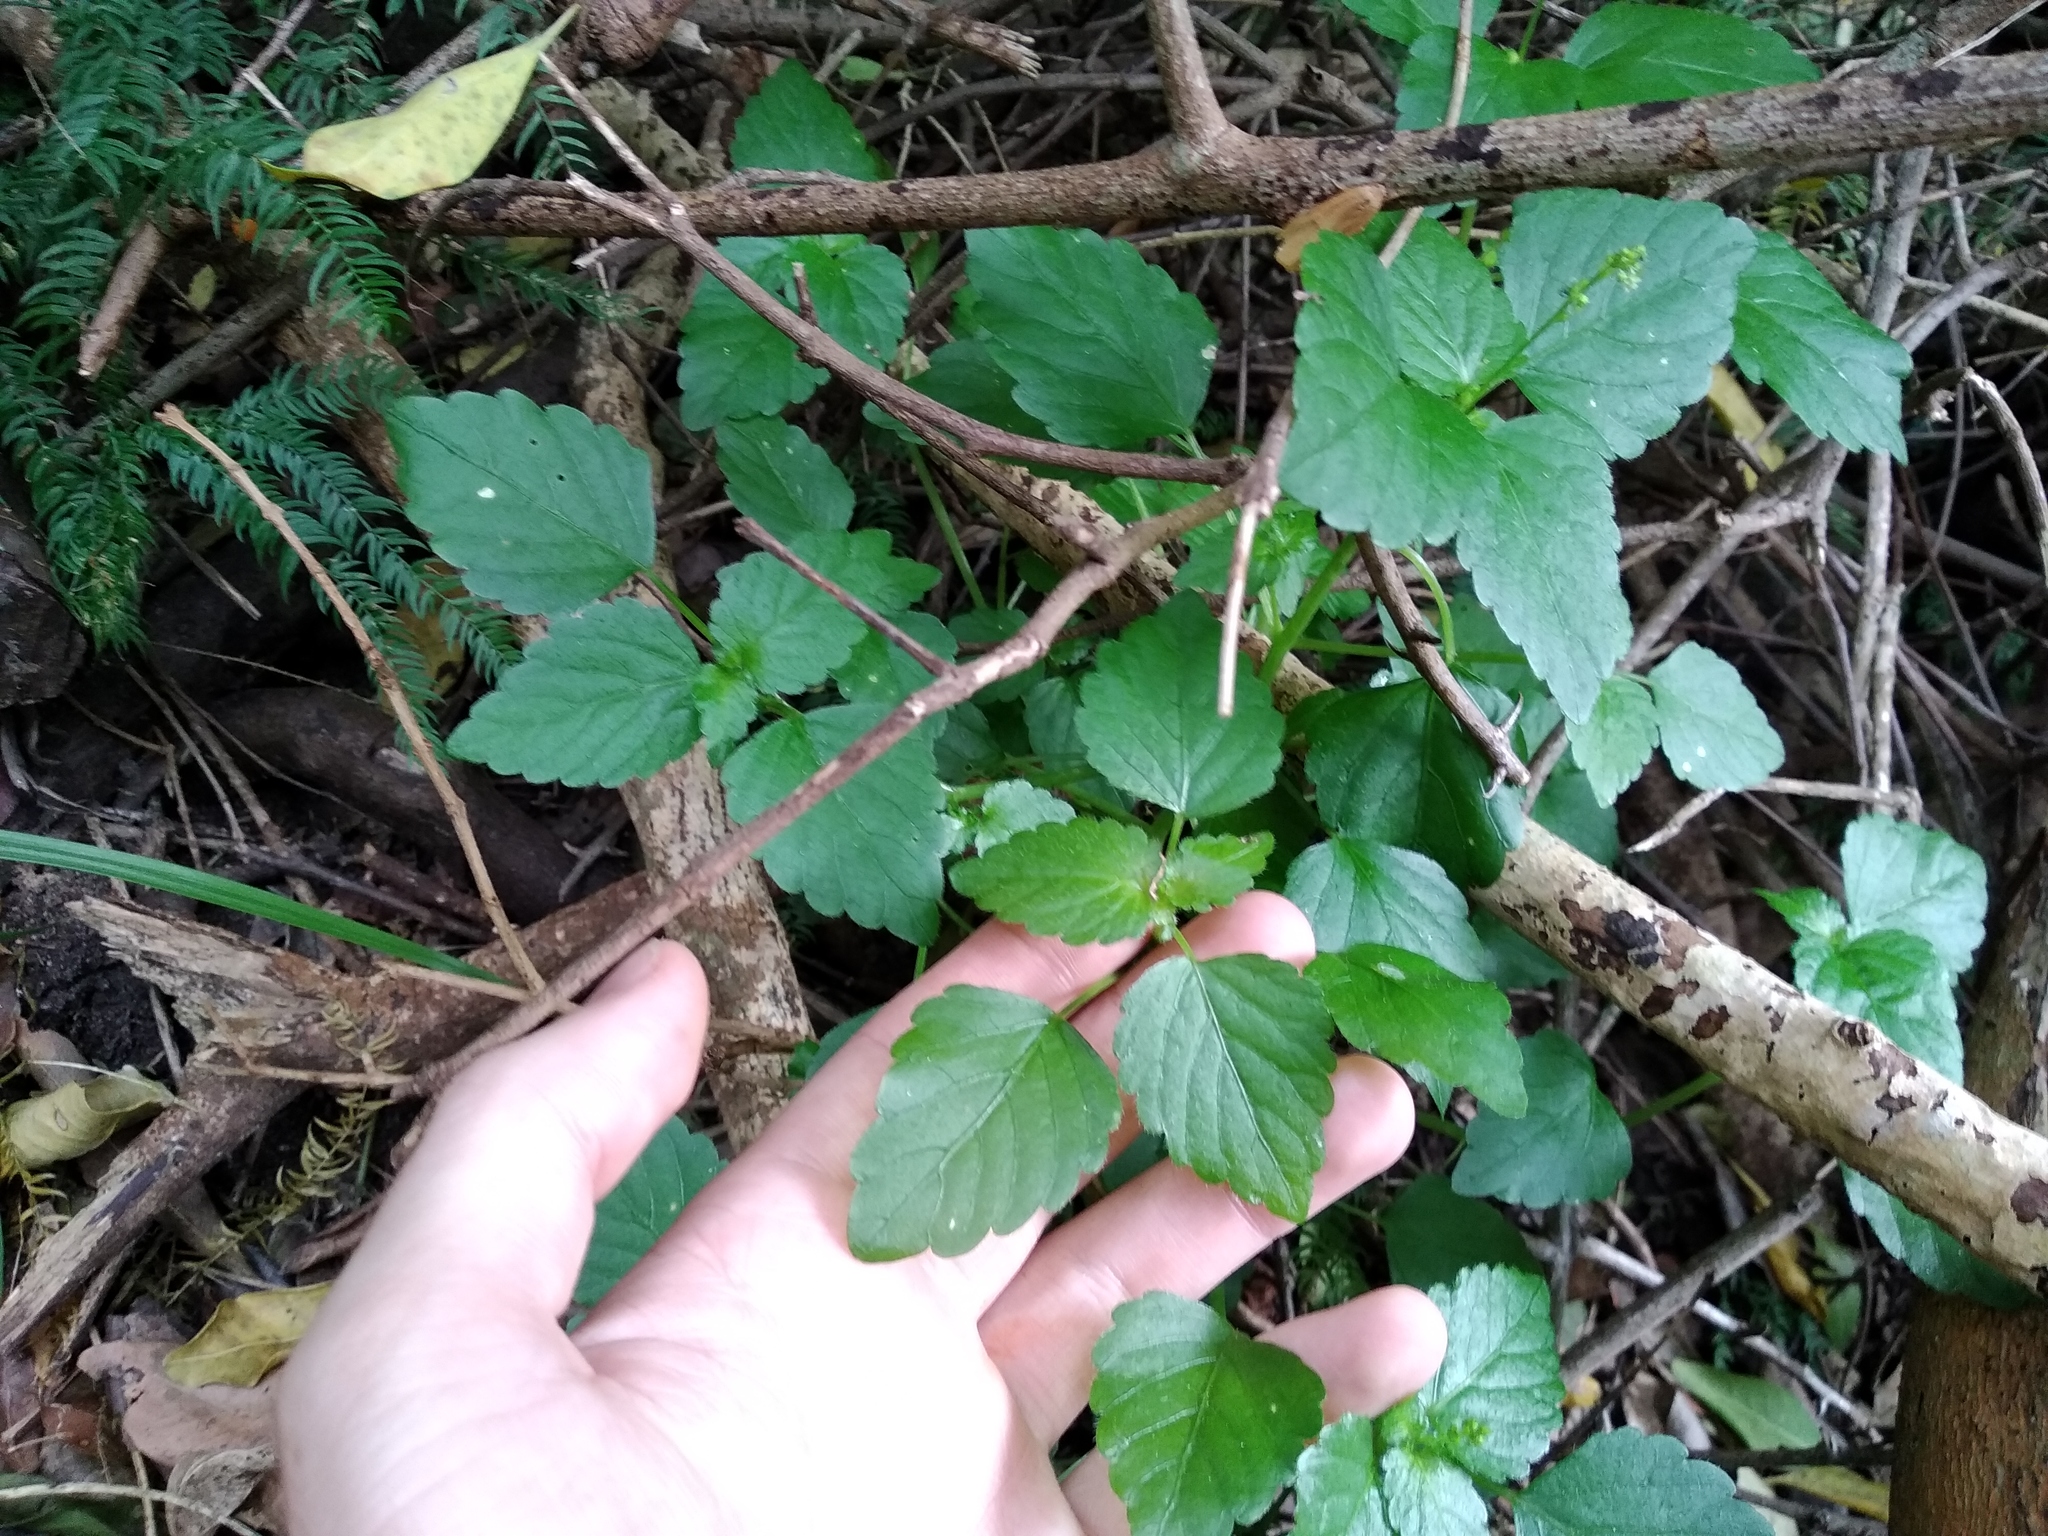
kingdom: Plantae
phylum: Tracheophyta
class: Magnoliopsida
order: Malpighiales
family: Euphorbiaceae
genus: Leidesia
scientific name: Leidesia procumbens
